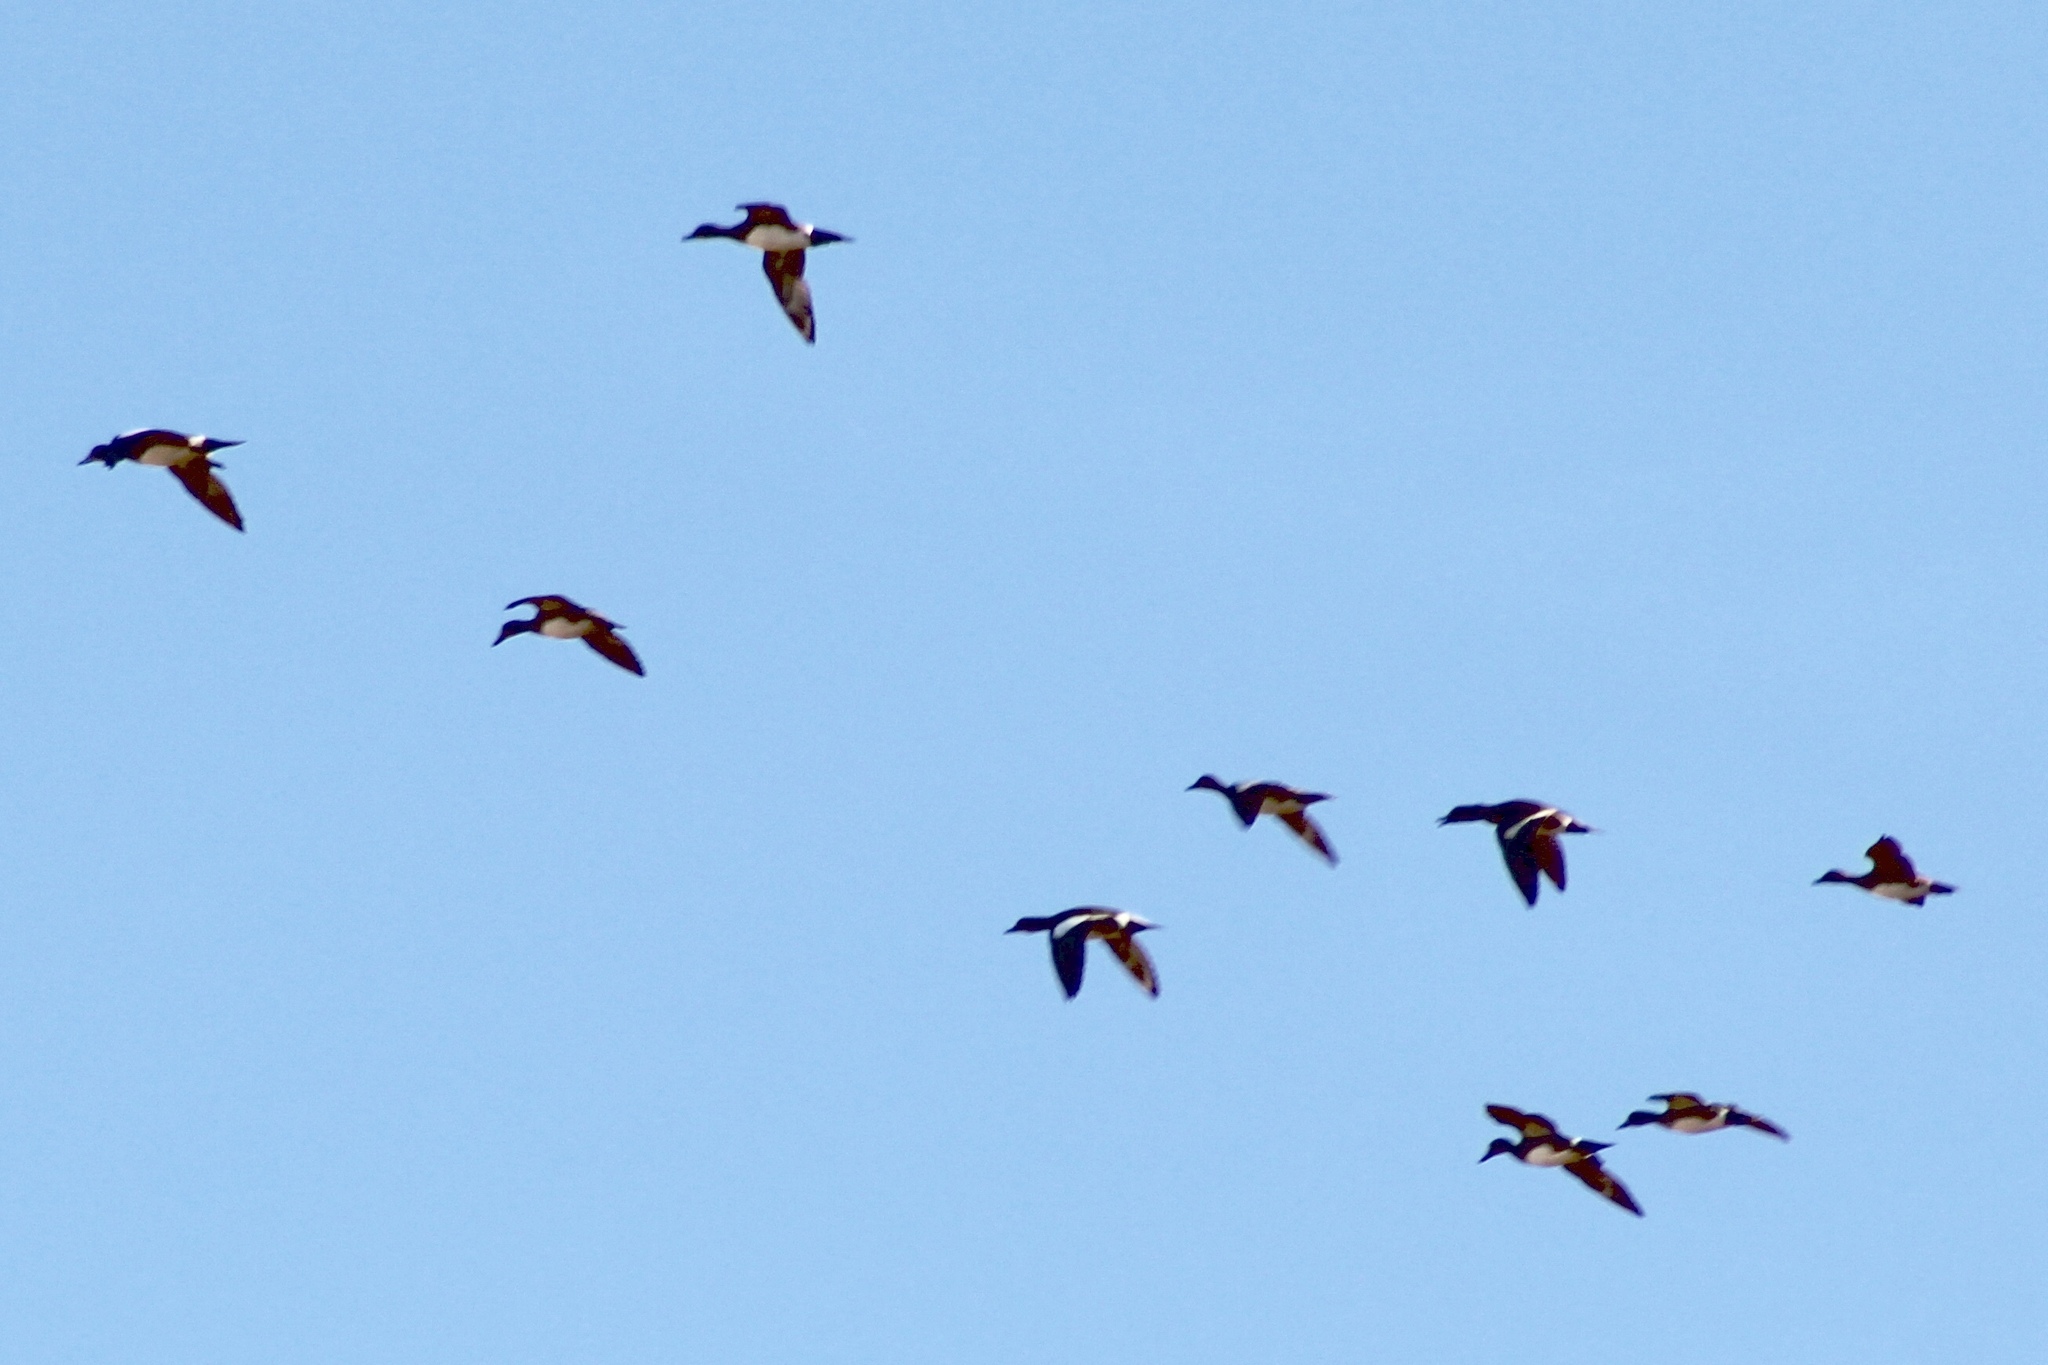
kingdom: Animalia
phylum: Chordata
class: Aves
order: Anseriformes
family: Anatidae
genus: Mareca
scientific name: Mareca americana
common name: American wigeon
